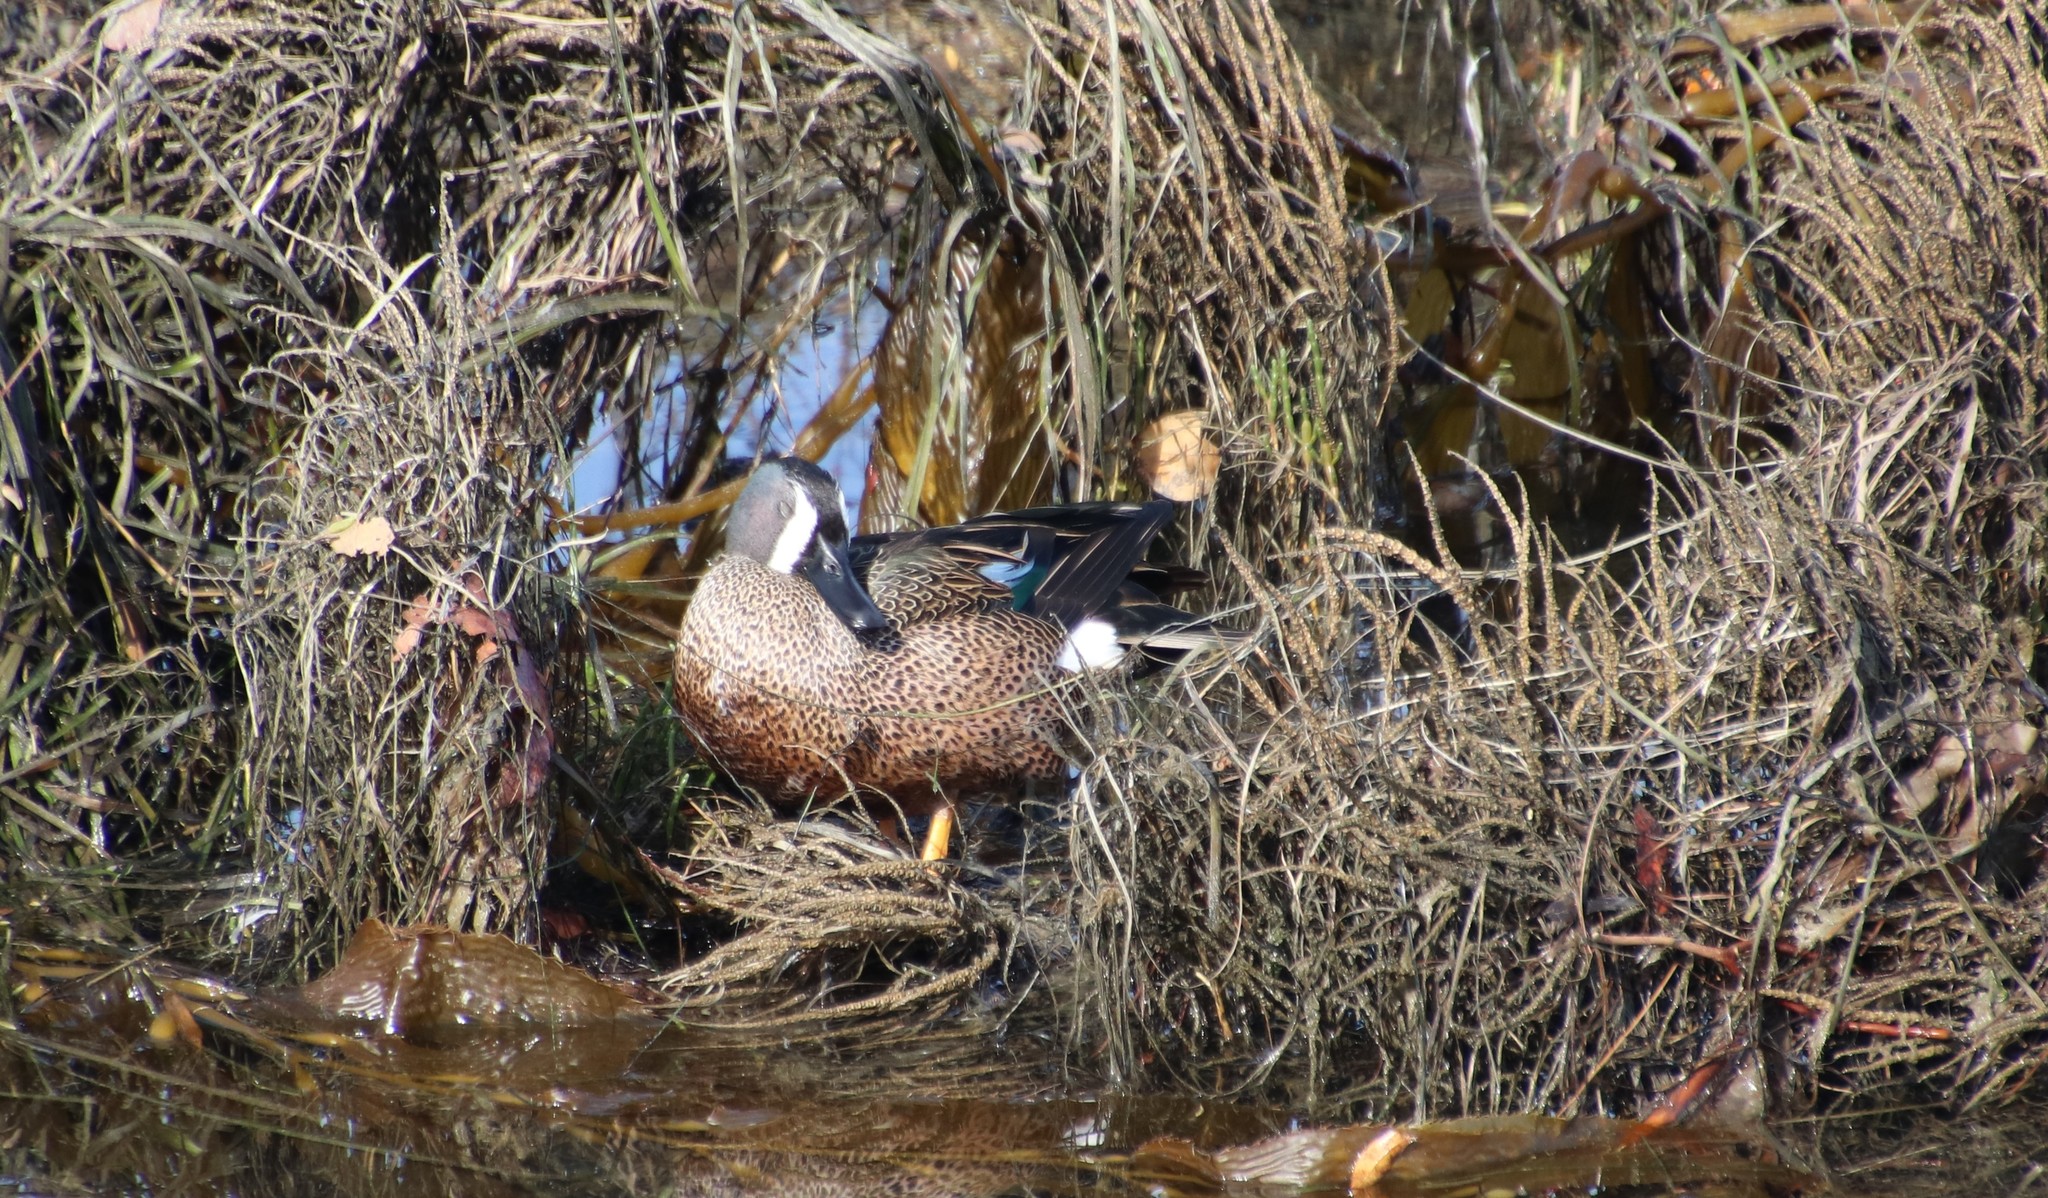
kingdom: Animalia
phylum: Chordata
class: Aves
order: Anseriformes
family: Anatidae
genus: Spatula
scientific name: Spatula discors
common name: Blue-winged teal
